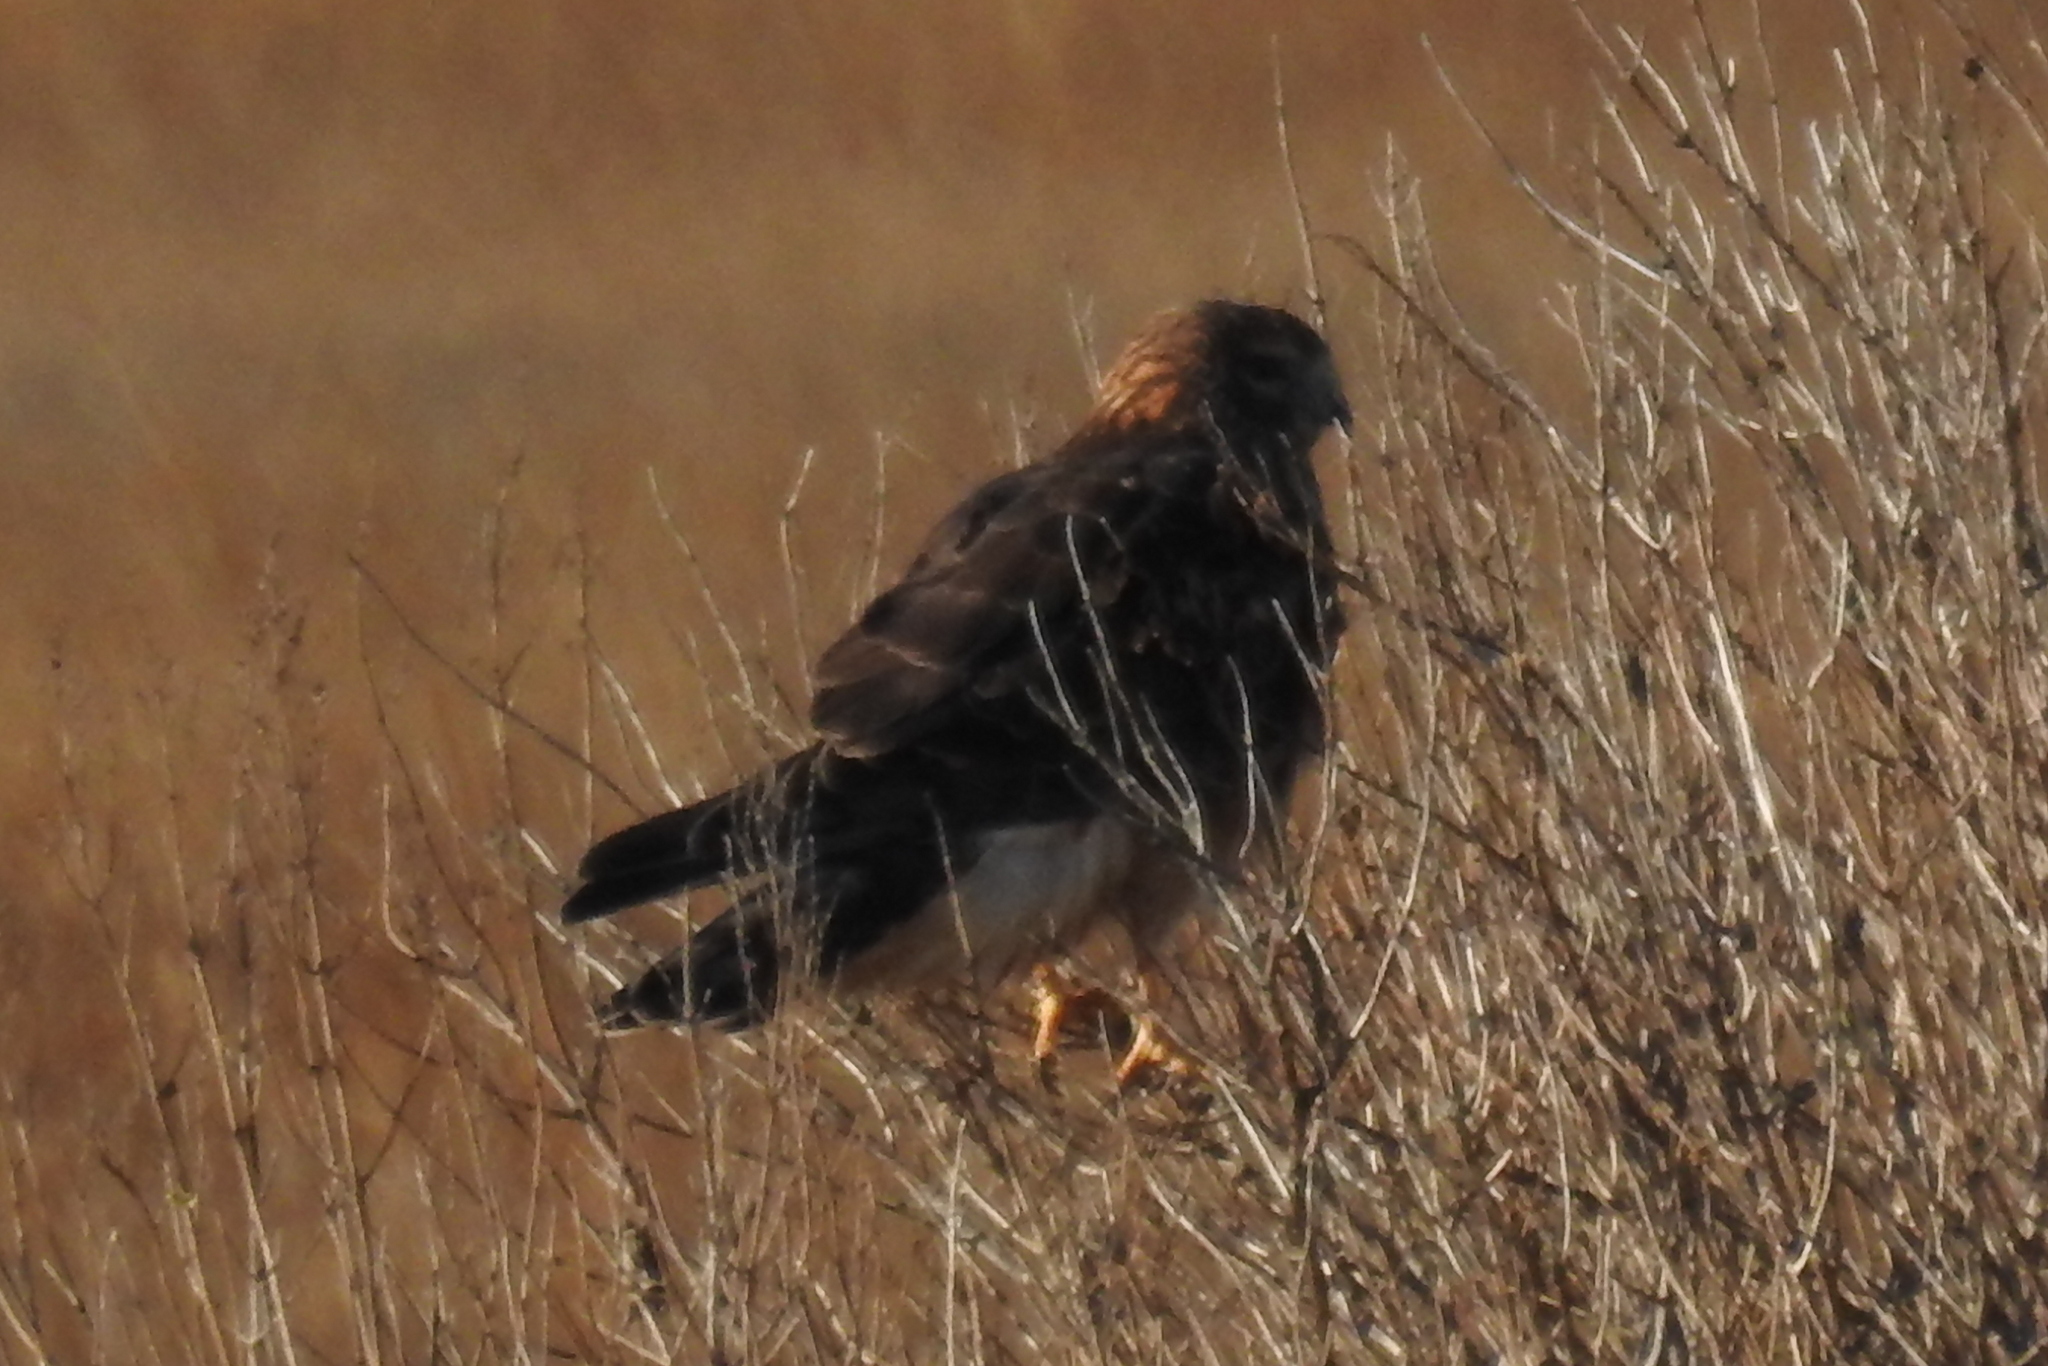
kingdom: Animalia
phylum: Chordata
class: Aves
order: Accipitriformes
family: Accipitridae
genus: Circus
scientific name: Circus cyaneus
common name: Hen harrier
